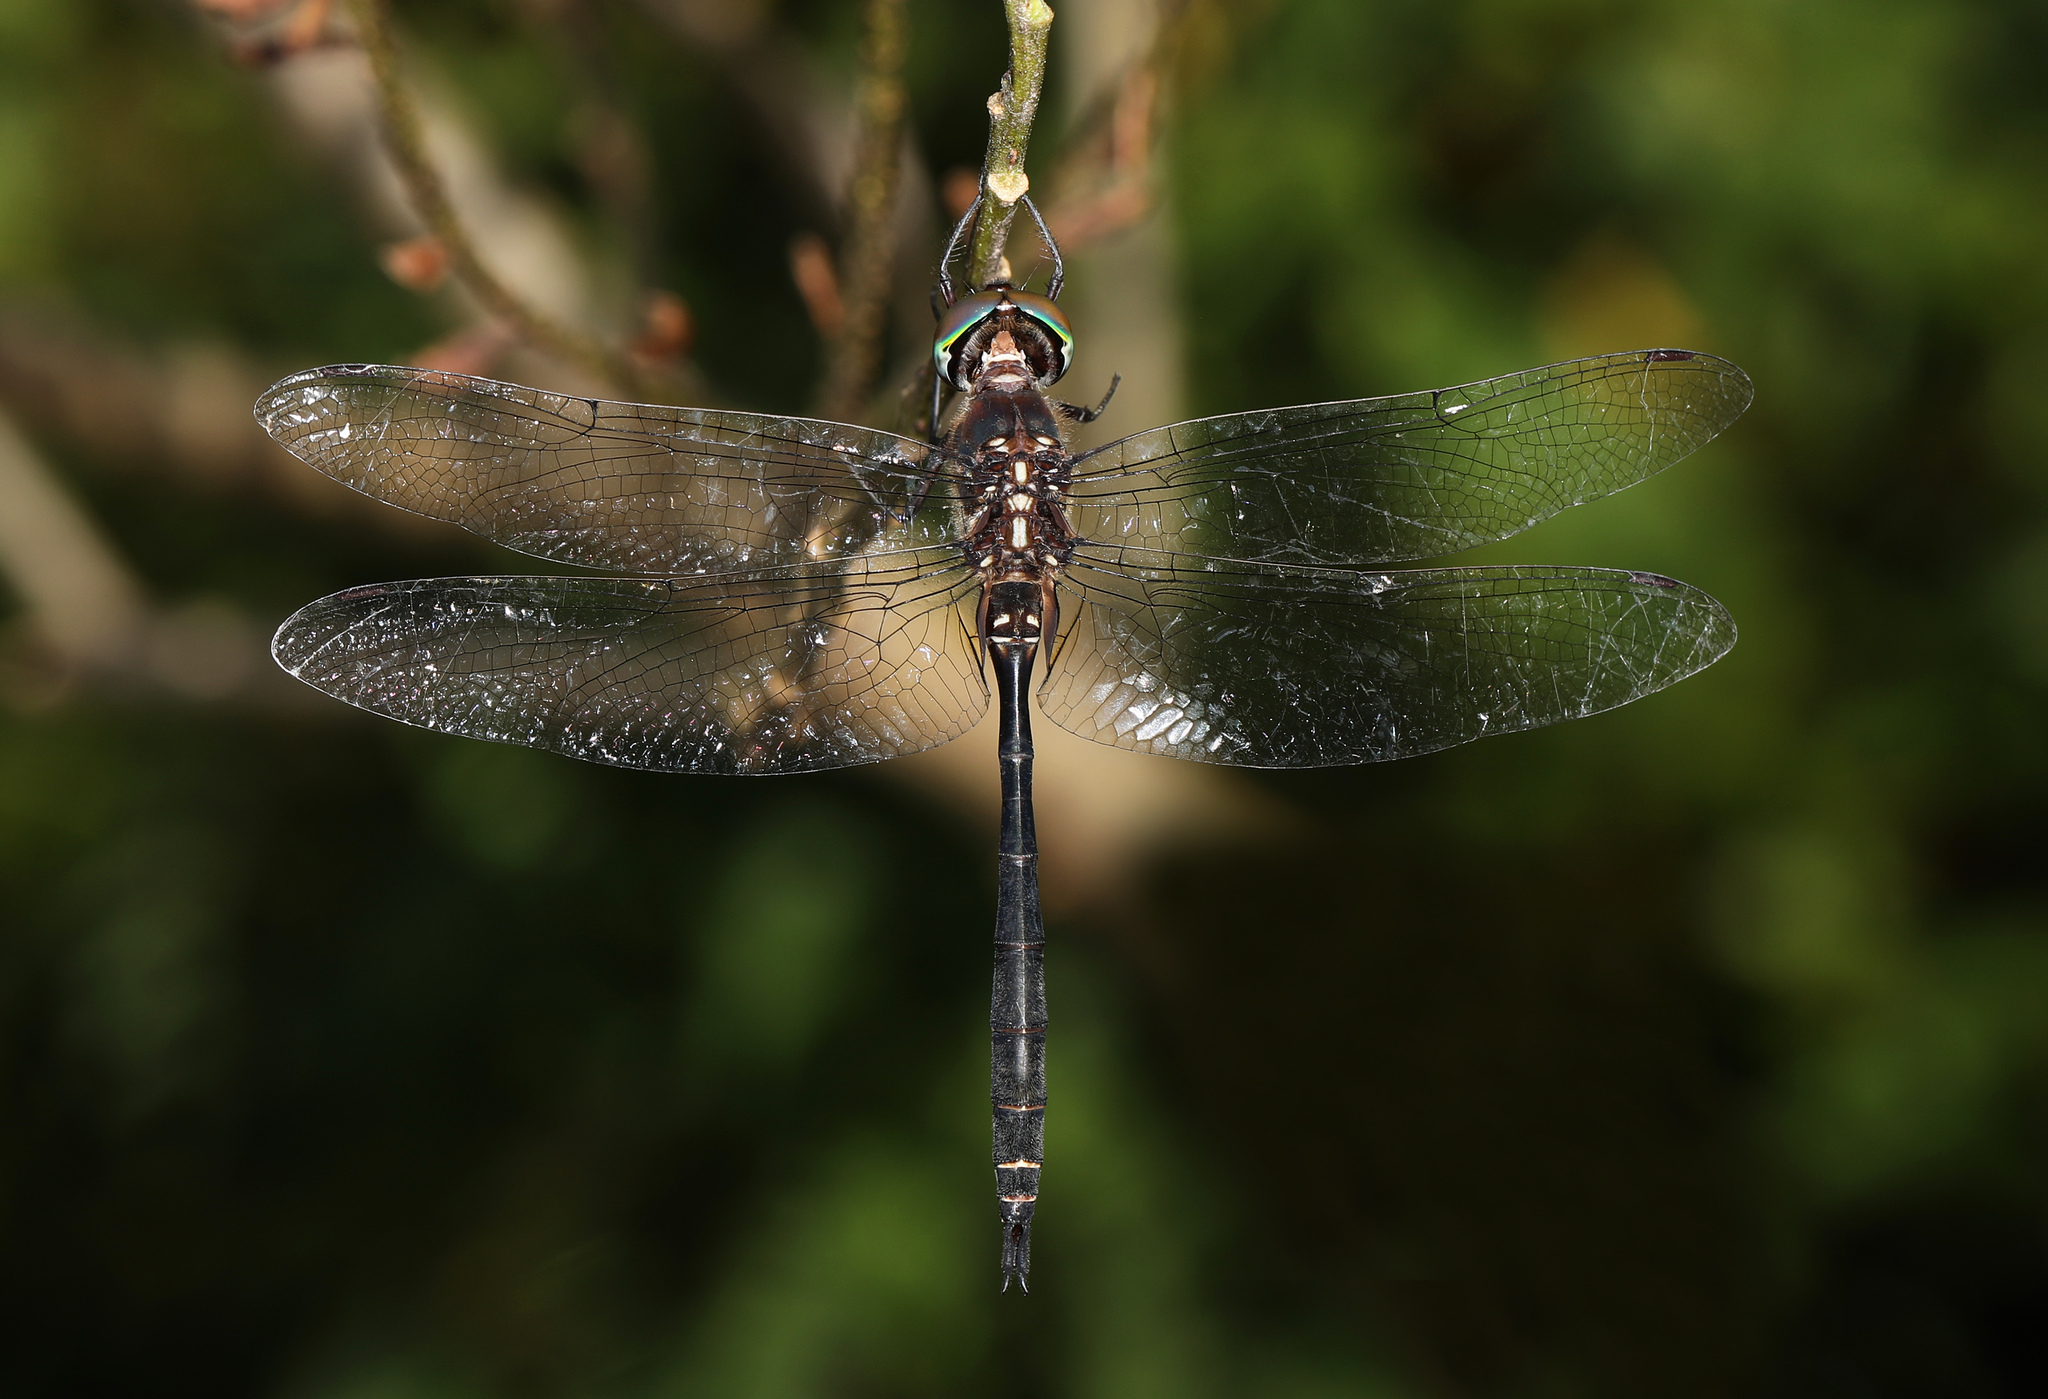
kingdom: Animalia
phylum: Arthropoda
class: Insecta
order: Odonata
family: Corduliidae
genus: Somatochlora
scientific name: Somatochlora filosa
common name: Fine-lined emerald
